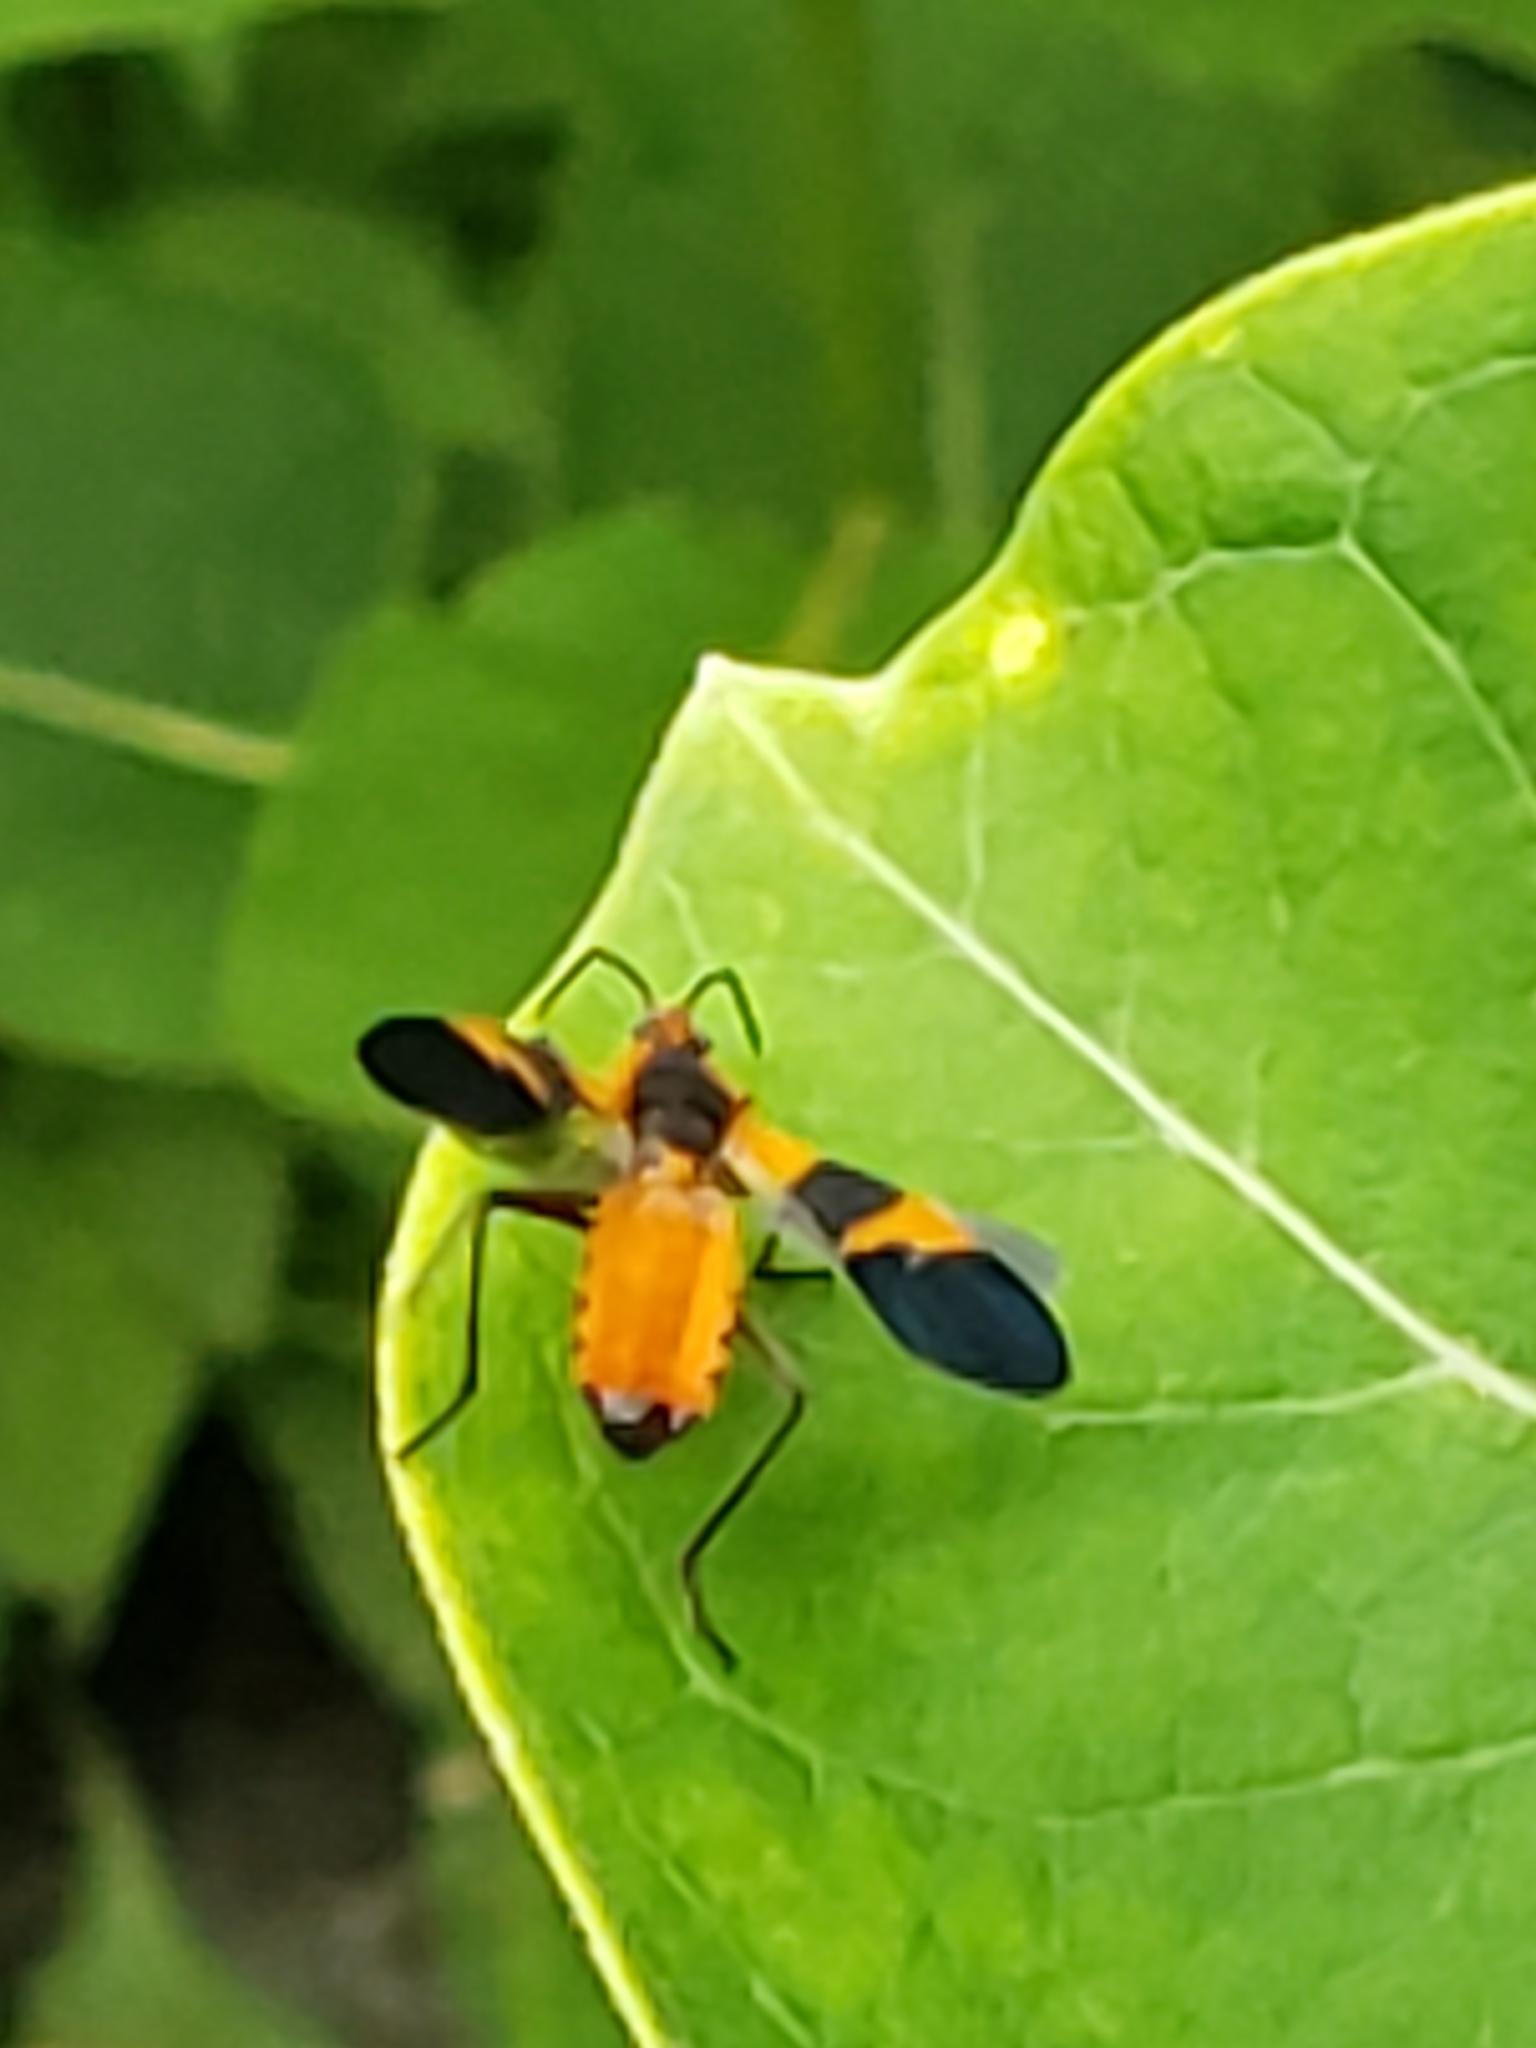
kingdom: Animalia
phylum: Arthropoda
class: Insecta
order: Hemiptera
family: Lygaeidae
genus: Oncopeltus
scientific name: Oncopeltus fasciatus
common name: Large milkweed bug
